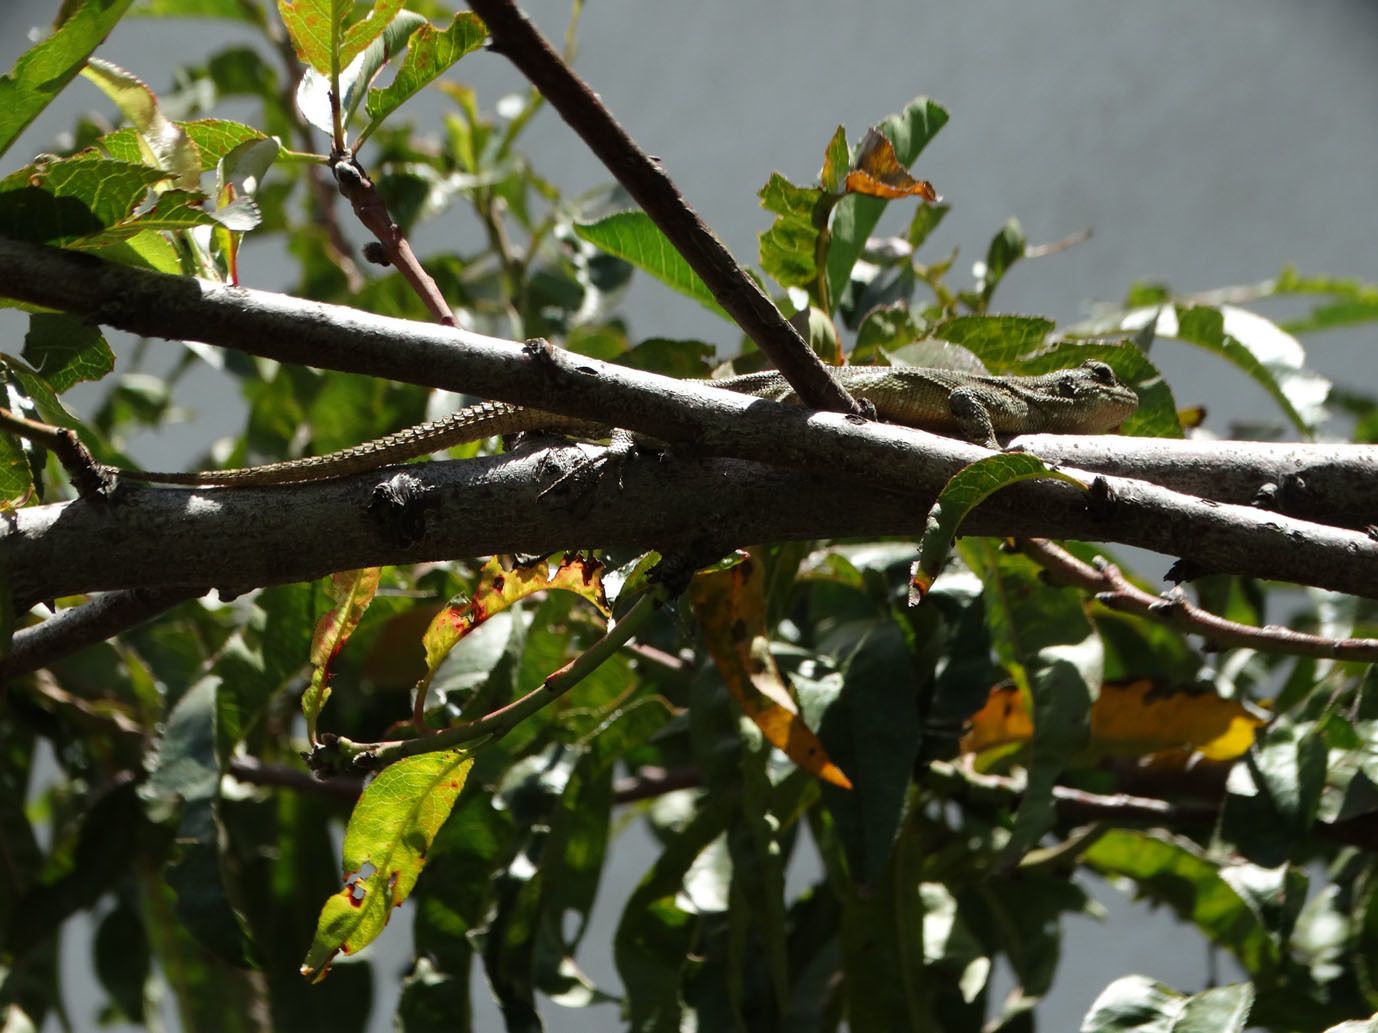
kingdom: Animalia
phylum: Chordata
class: Squamata
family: Phrynosomatidae
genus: Sceloporus
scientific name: Sceloporus grammicus
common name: Mesquite lizard
